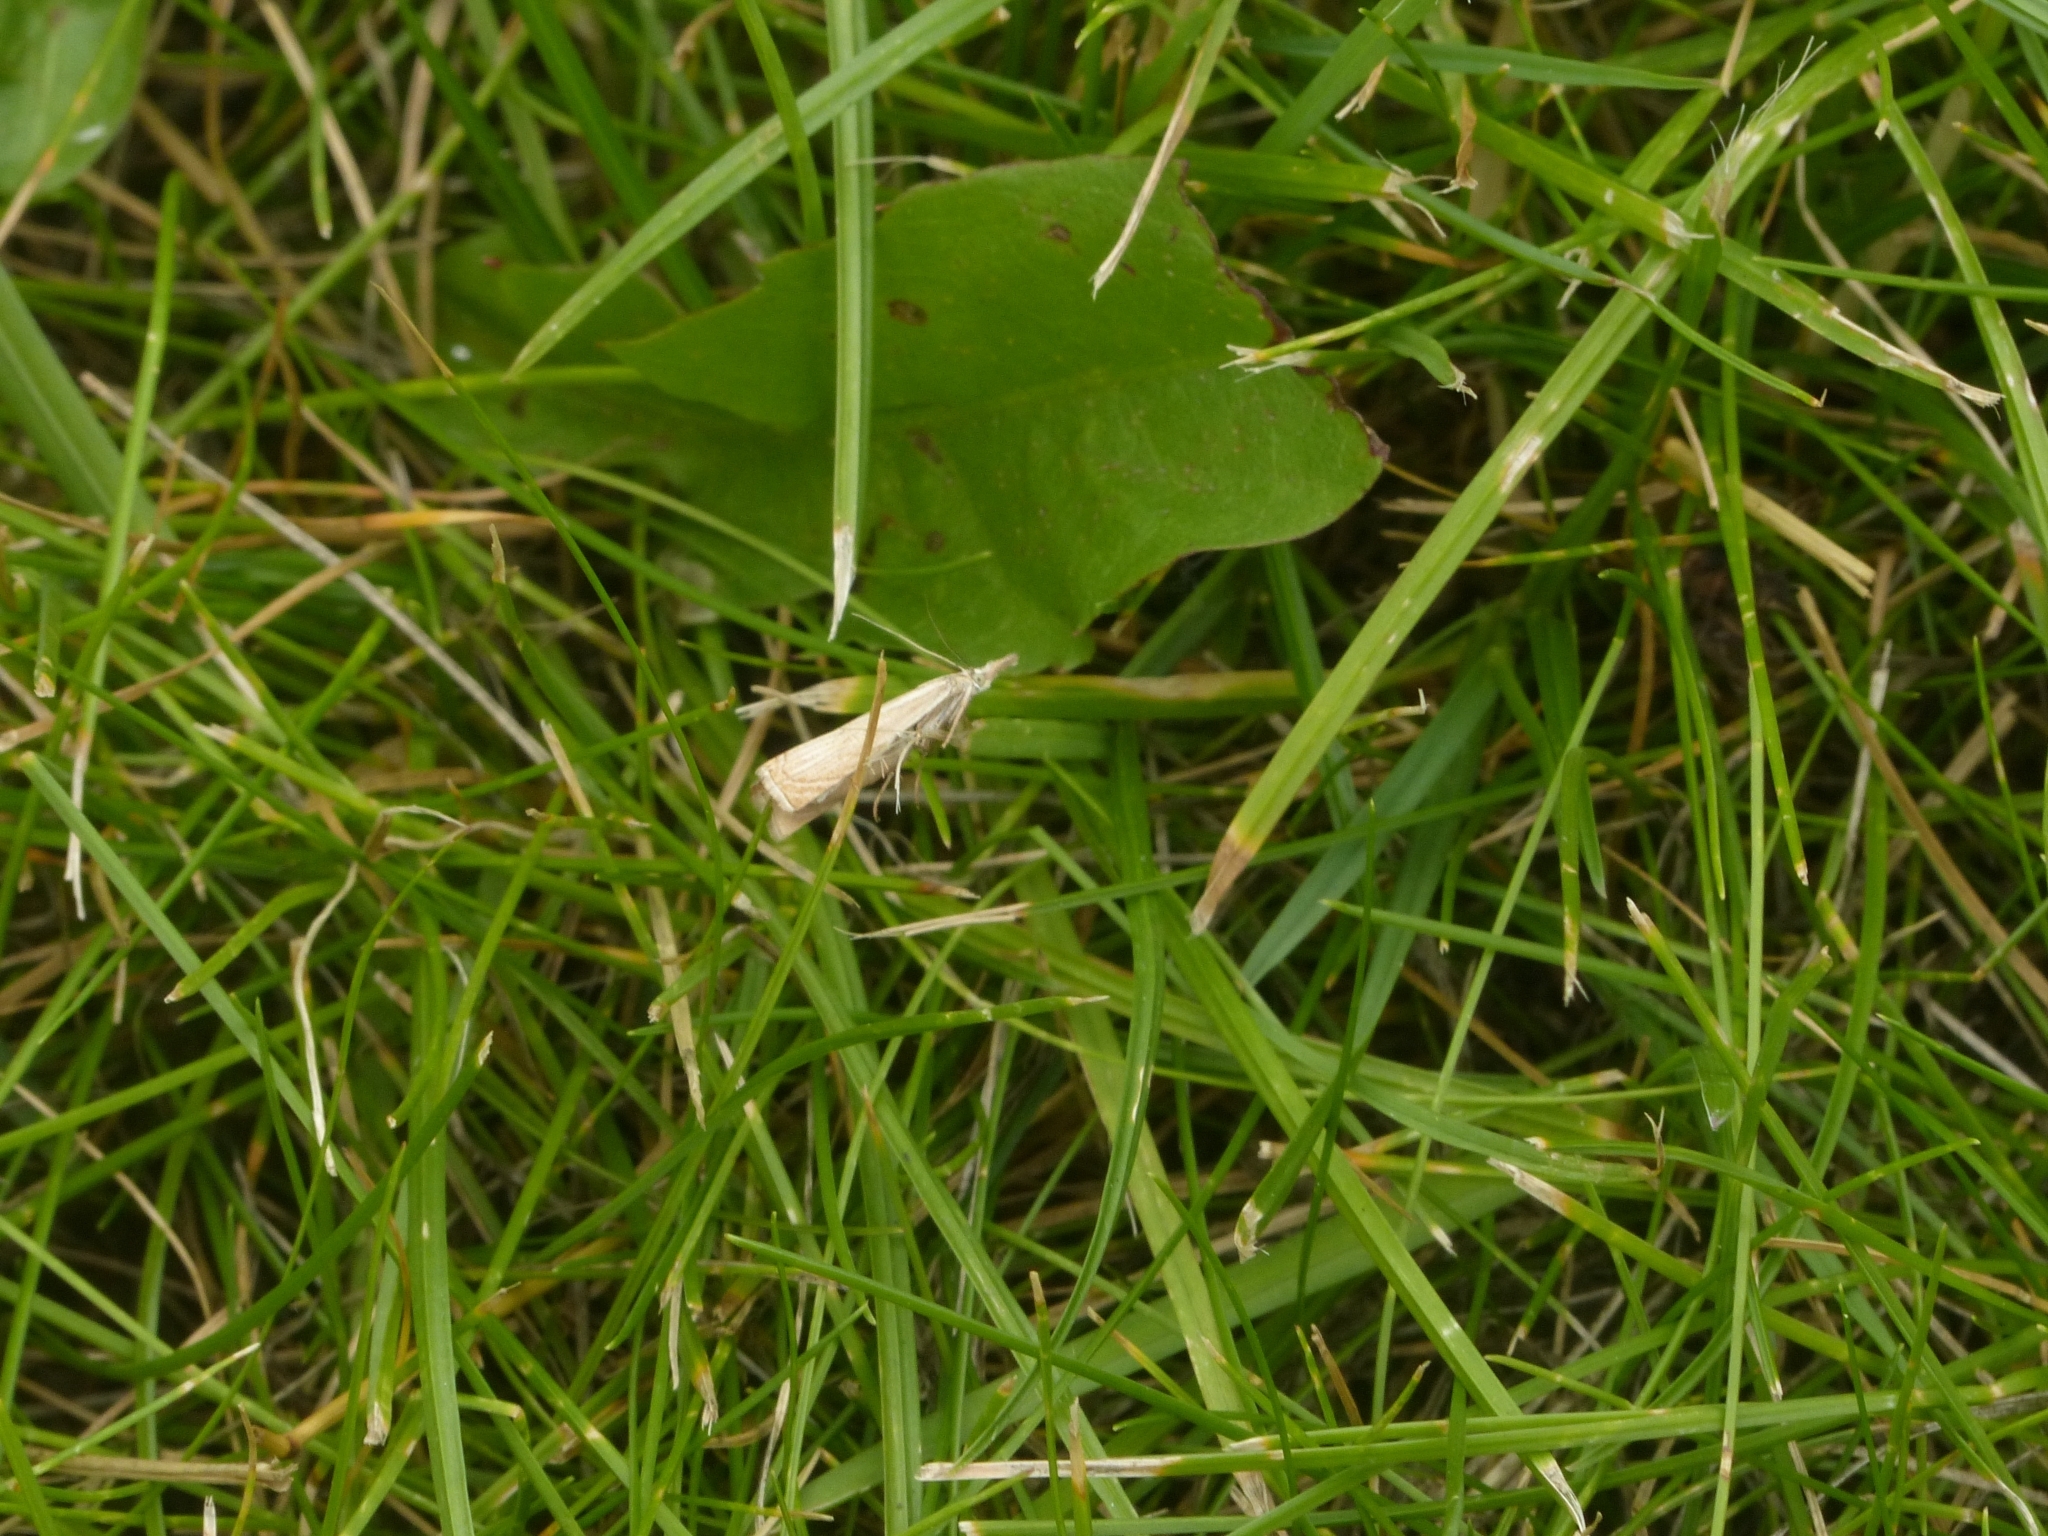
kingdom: Animalia
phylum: Arthropoda
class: Insecta
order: Lepidoptera
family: Crambidae
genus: Chrysoteuchia
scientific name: Chrysoteuchia culmella
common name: Garden grass-veneer
